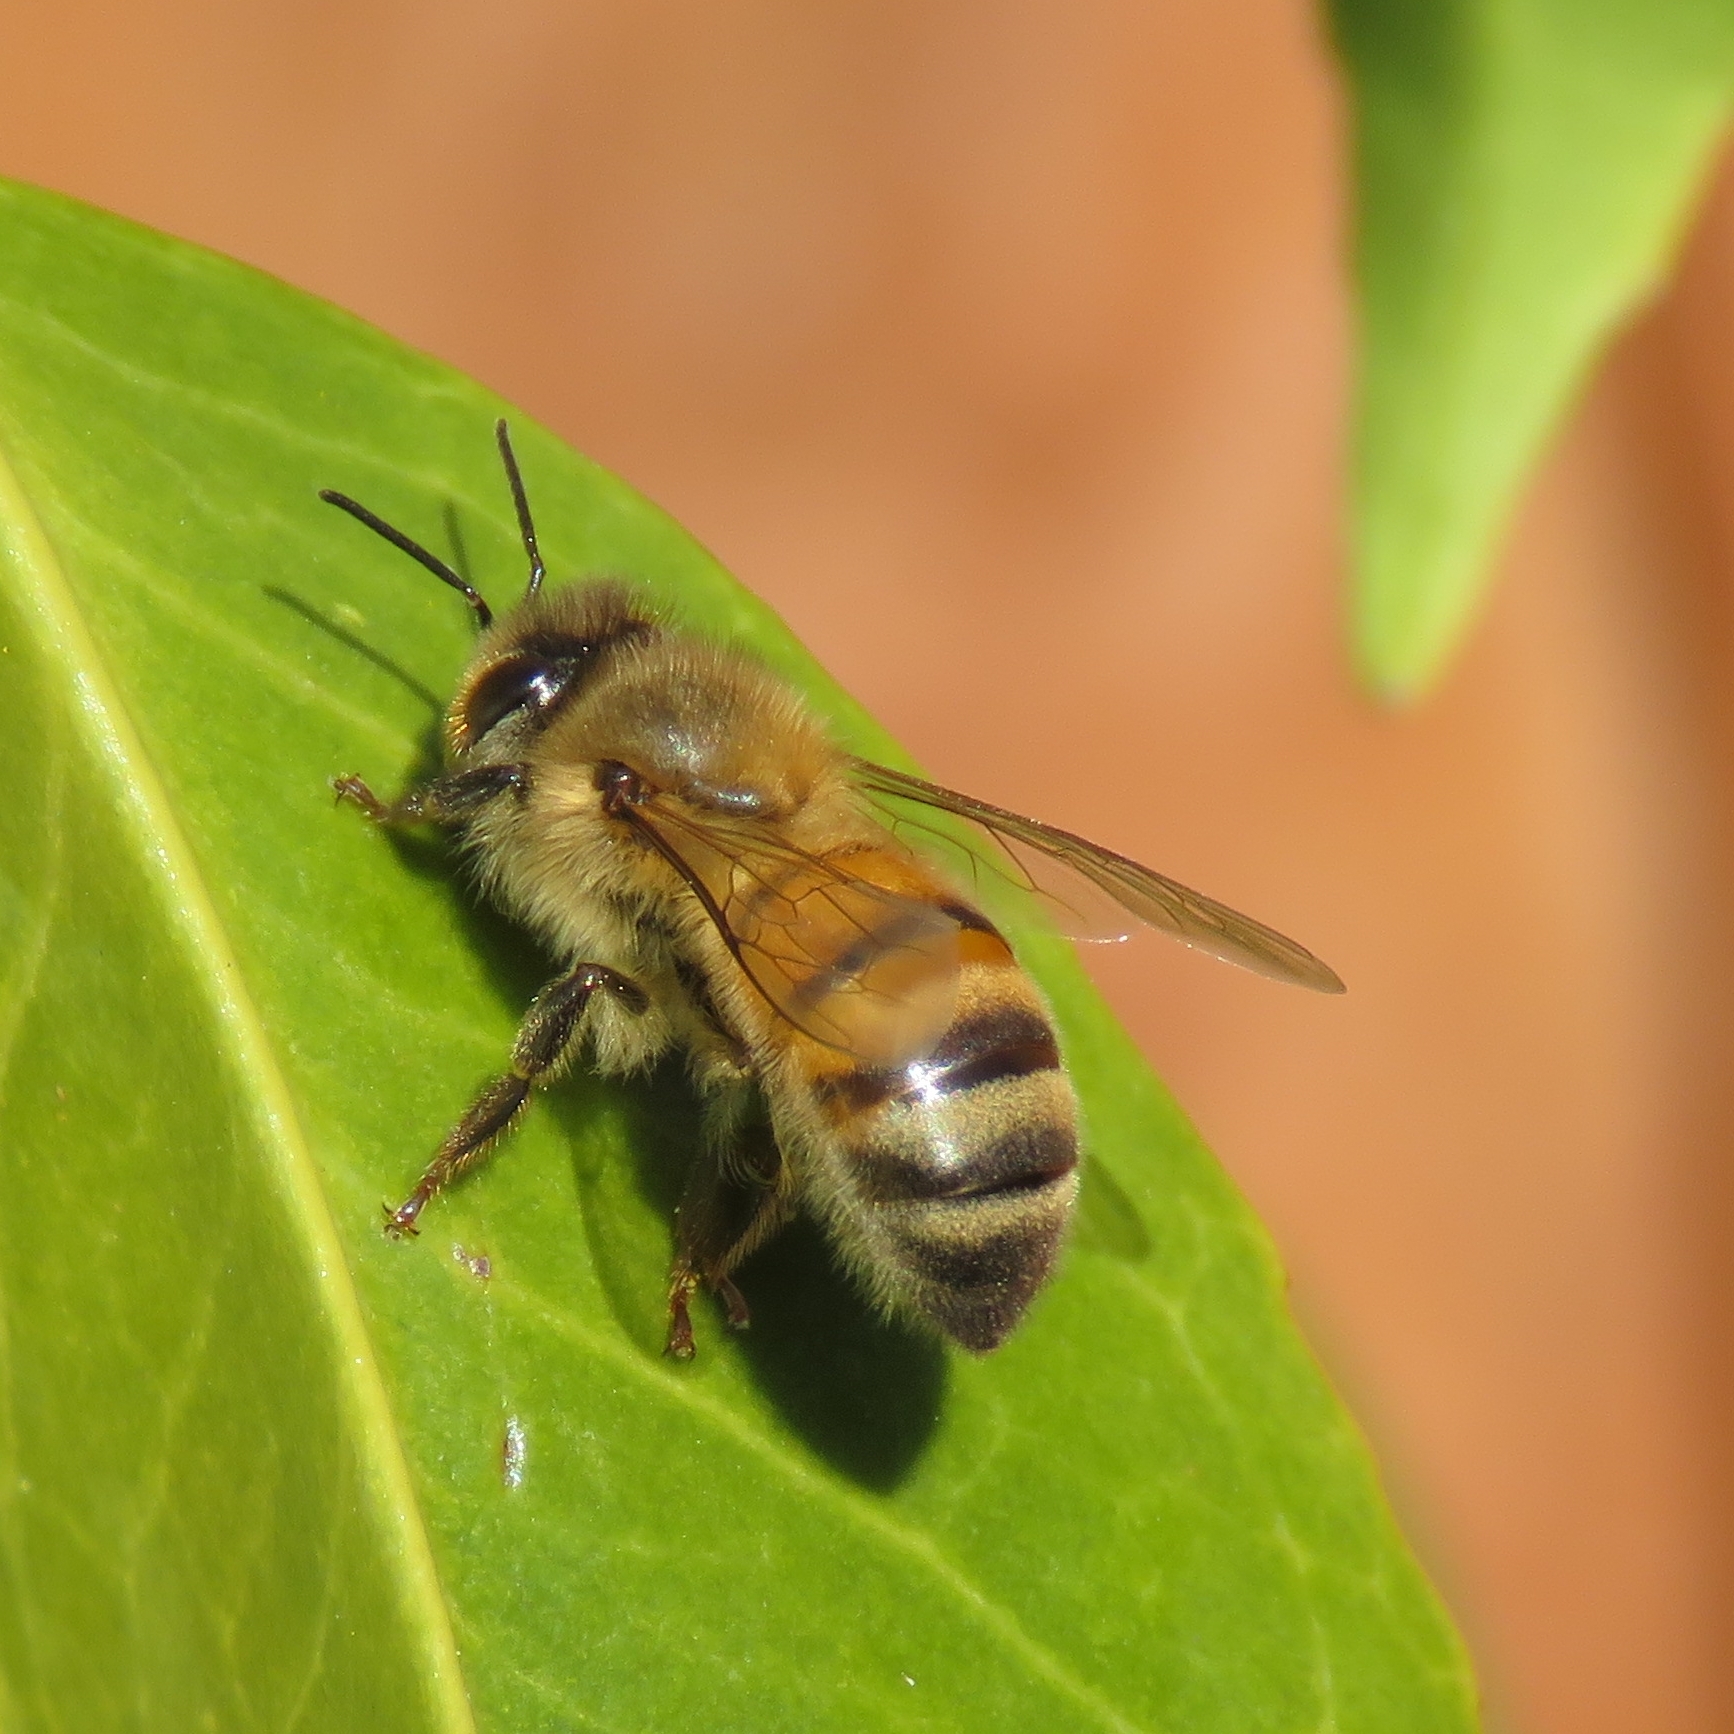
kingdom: Animalia
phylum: Arthropoda
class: Insecta
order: Hymenoptera
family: Apidae
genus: Apis
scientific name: Apis mellifera
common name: Honey bee
